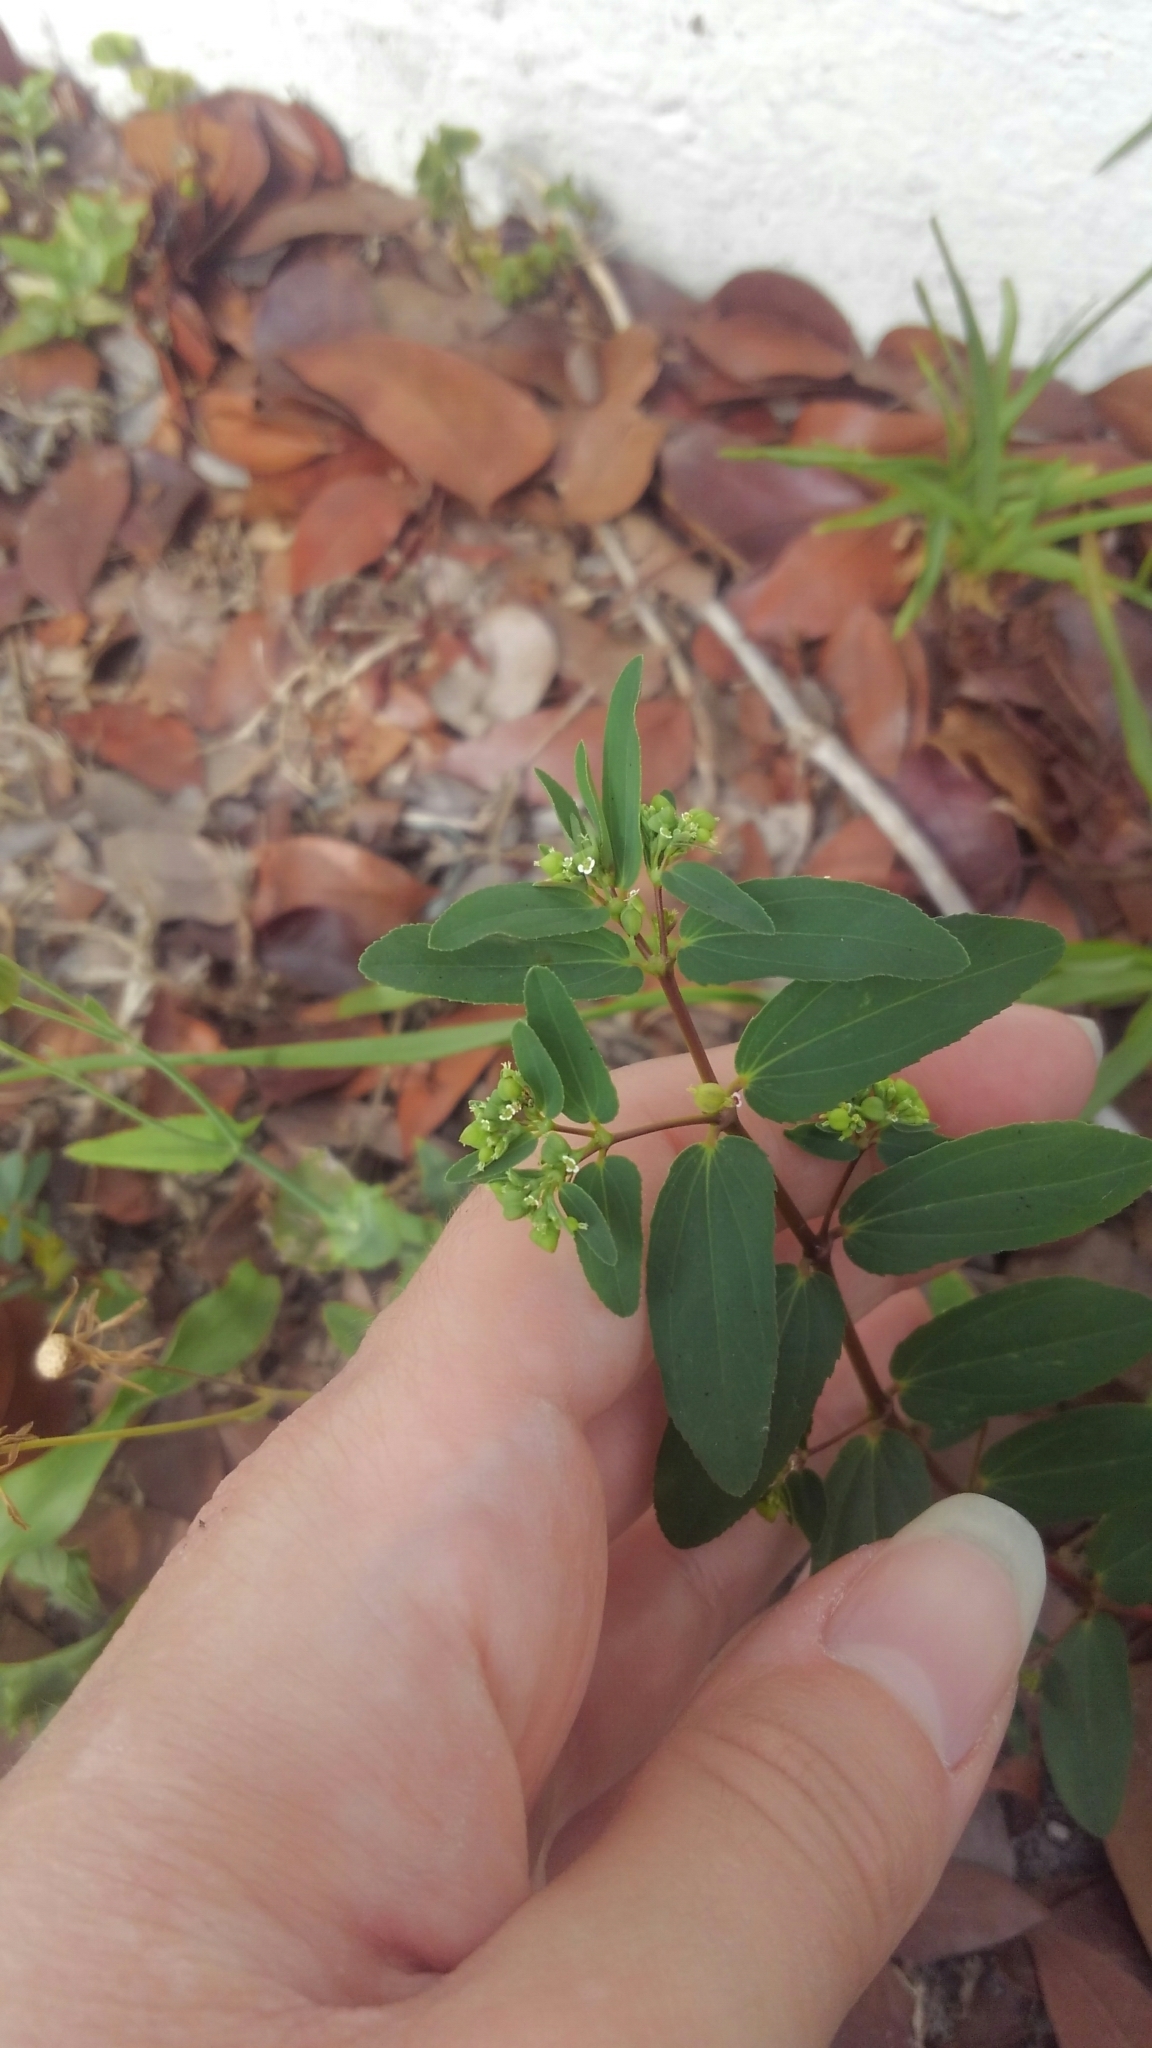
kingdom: Plantae
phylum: Tracheophyta
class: Magnoliopsida
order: Malpighiales
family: Euphorbiaceae
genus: Euphorbia
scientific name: Euphorbia hyssopifolia
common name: Hyssopleaf sandmat
